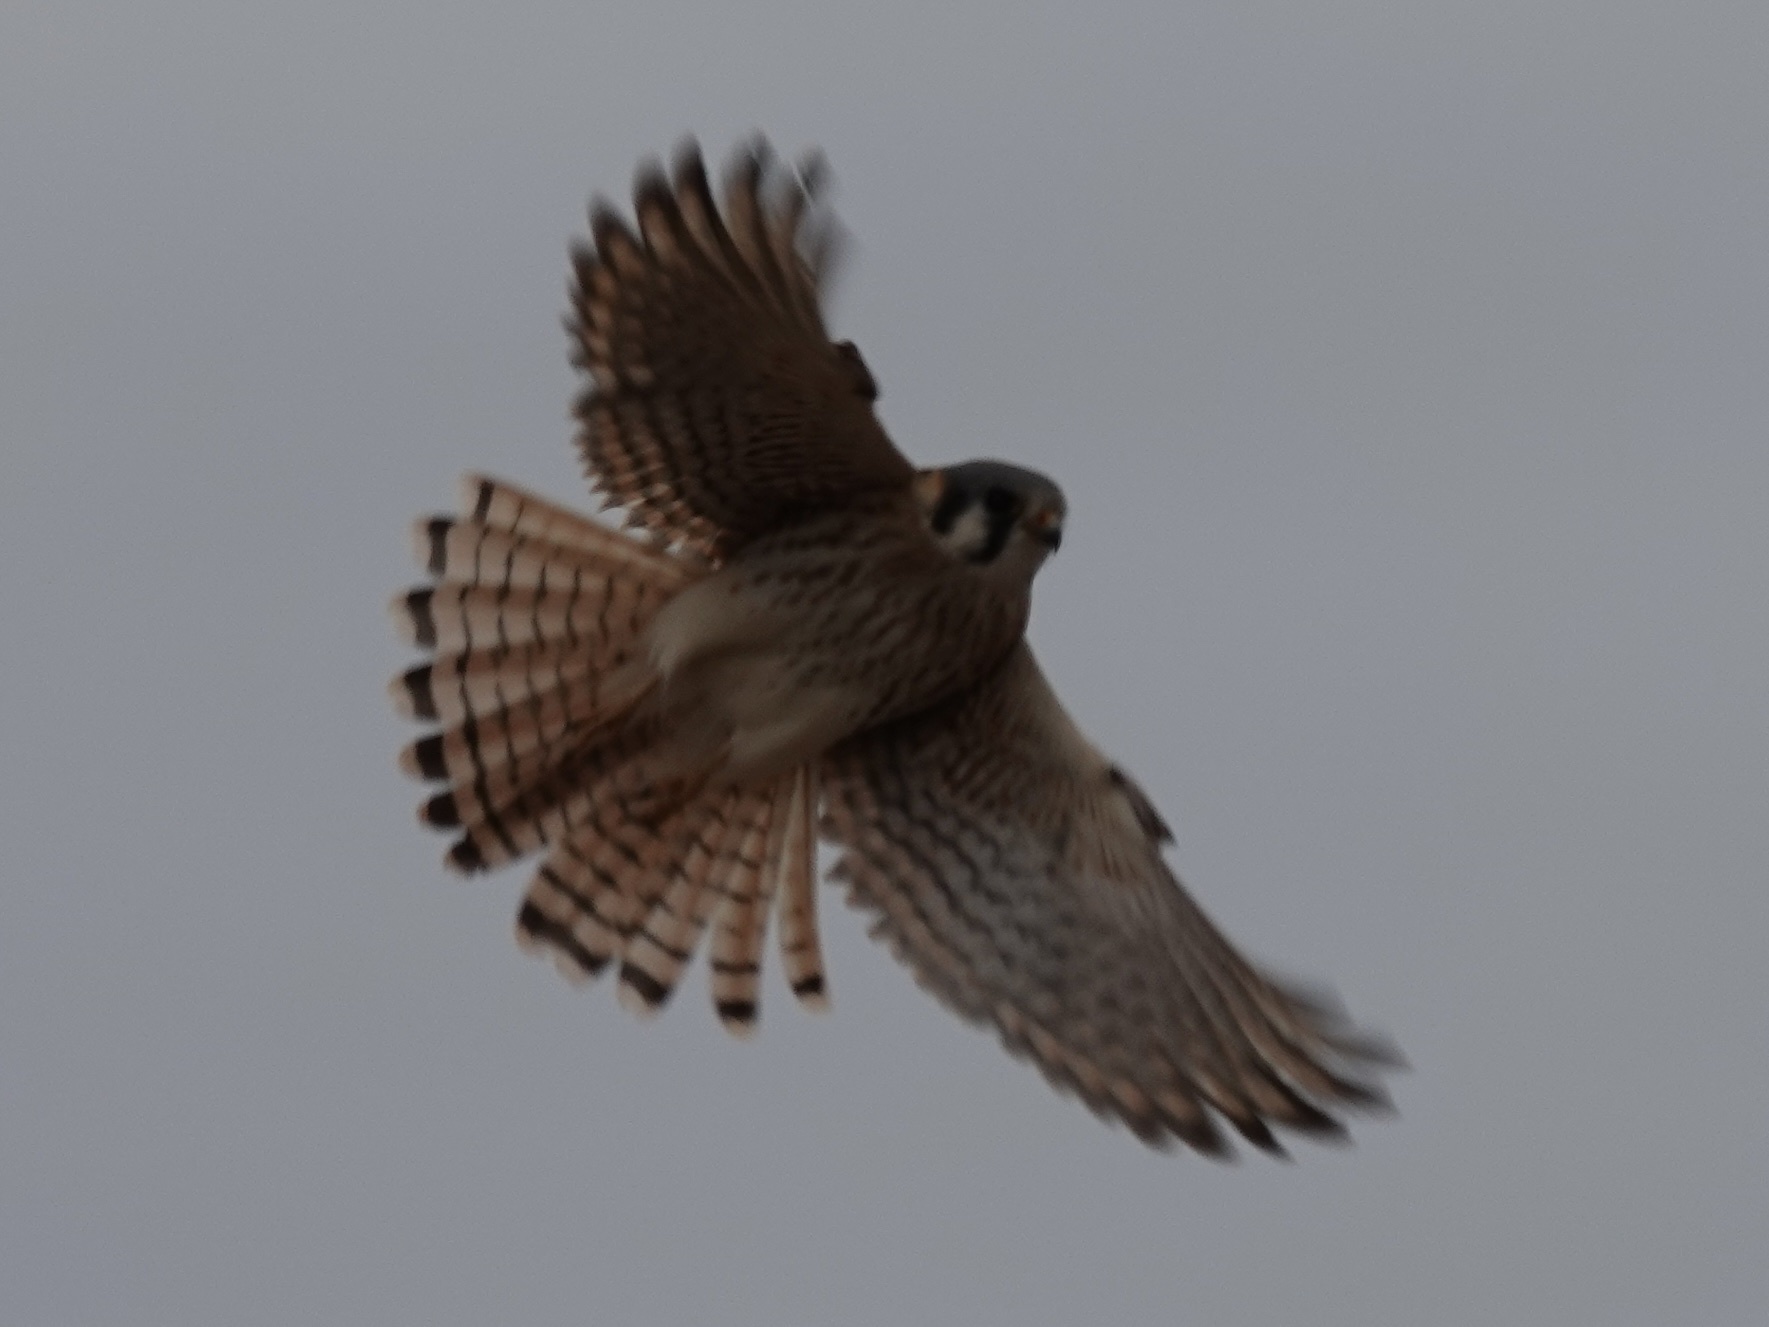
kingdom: Animalia
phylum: Chordata
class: Aves
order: Falconiformes
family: Falconidae
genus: Falco
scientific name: Falco sparverius
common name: American kestrel
